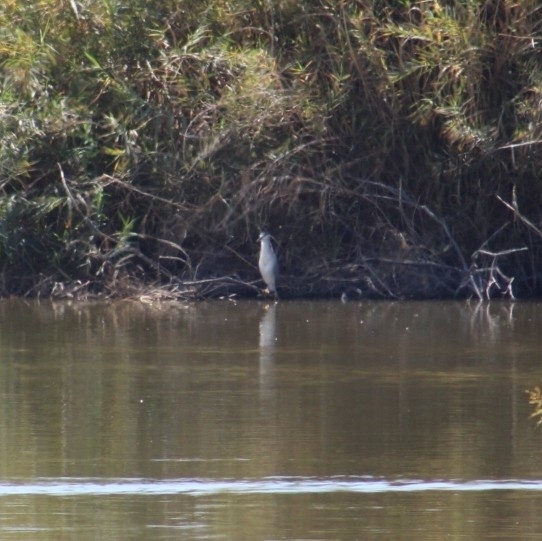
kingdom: Animalia
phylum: Chordata
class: Aves
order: Pelecaniformes
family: Ardeidae
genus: Nycticorax
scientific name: Nycticorax nycticorax
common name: Black-crowned night heron
